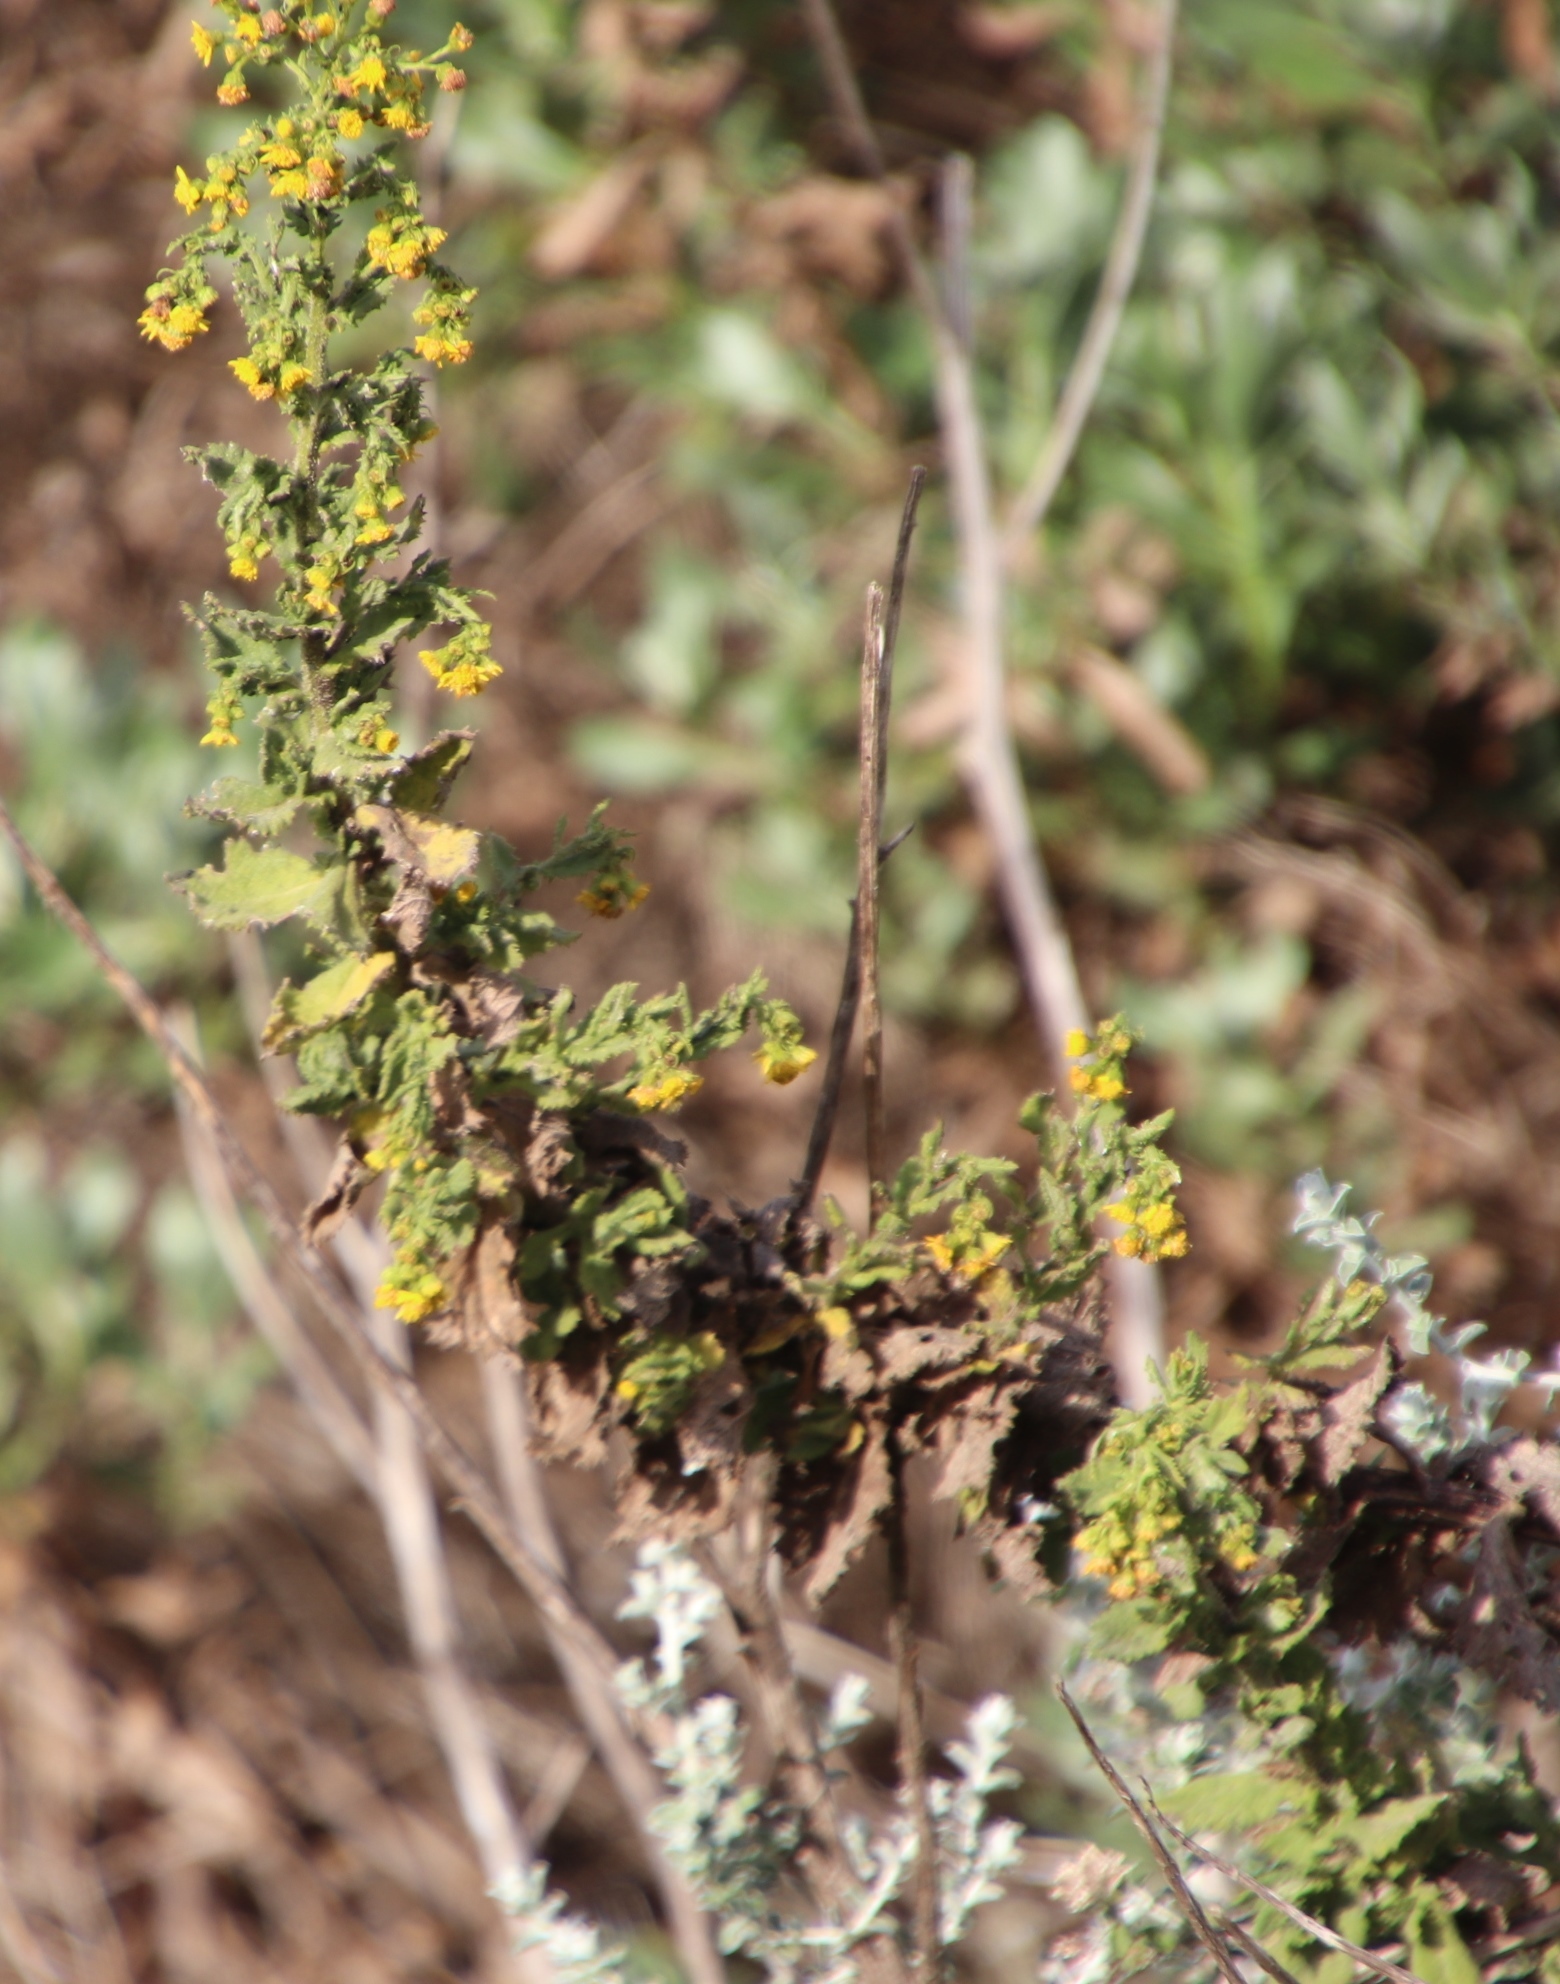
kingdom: Plantae
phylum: Tracheophyta
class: Magnoliopsida
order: Asterales
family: Asteraceae
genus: Senecio
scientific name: Senecio rigidus
